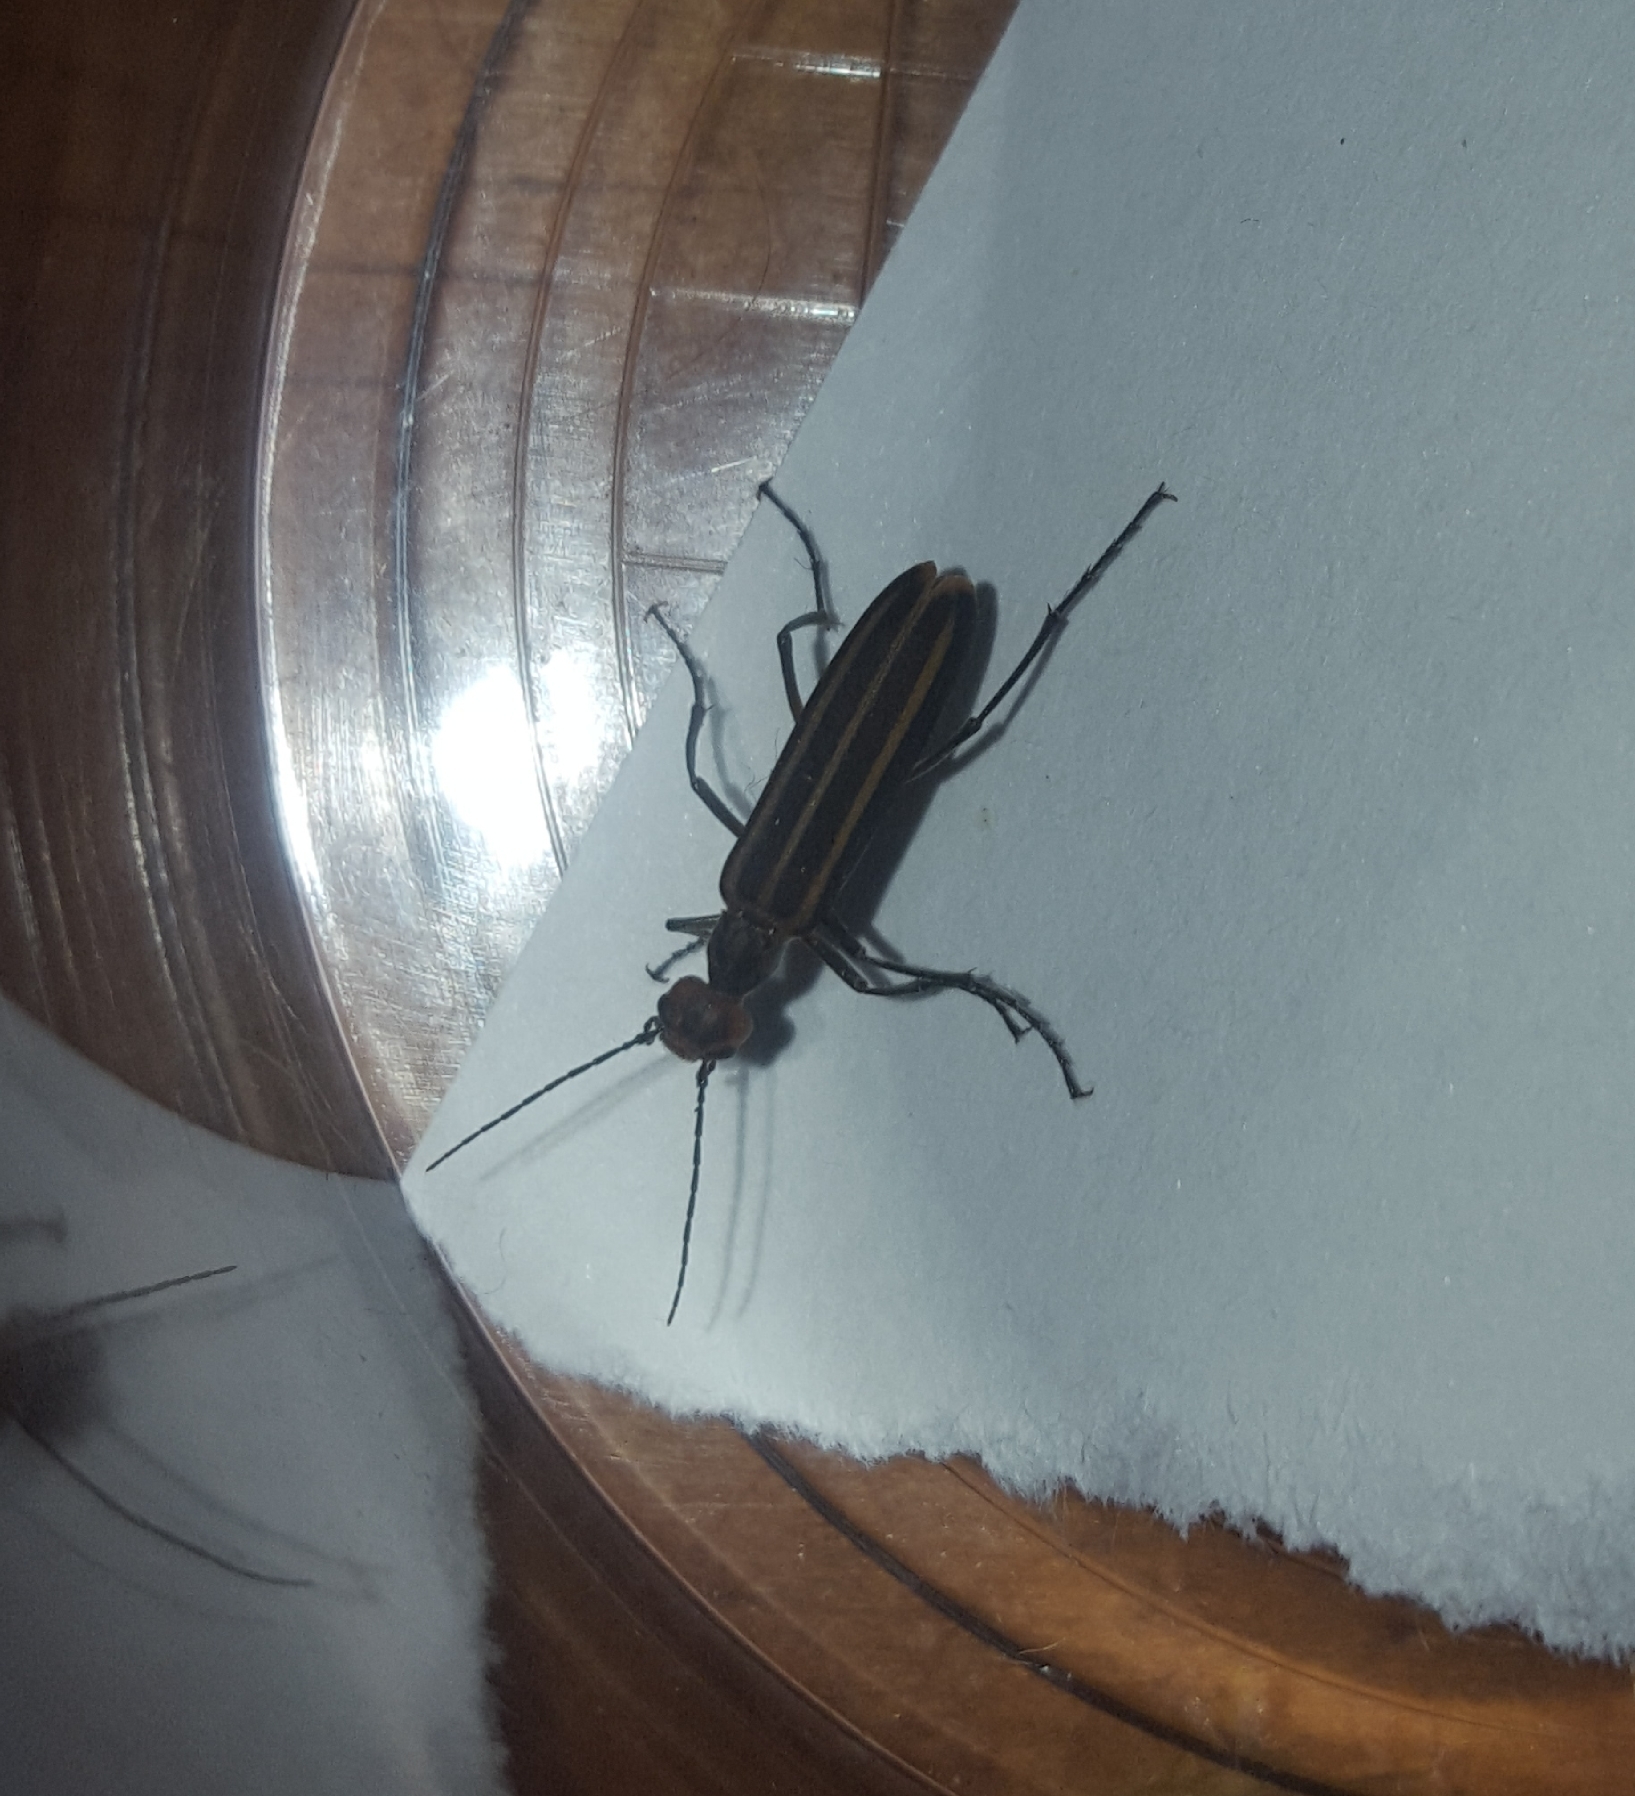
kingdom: Animalia
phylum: Arthropoda
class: Insecta
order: Coleoptera
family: Meloidae
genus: Epicauta
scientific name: Epicauta vittata
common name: Old-fashioned potato beetle
